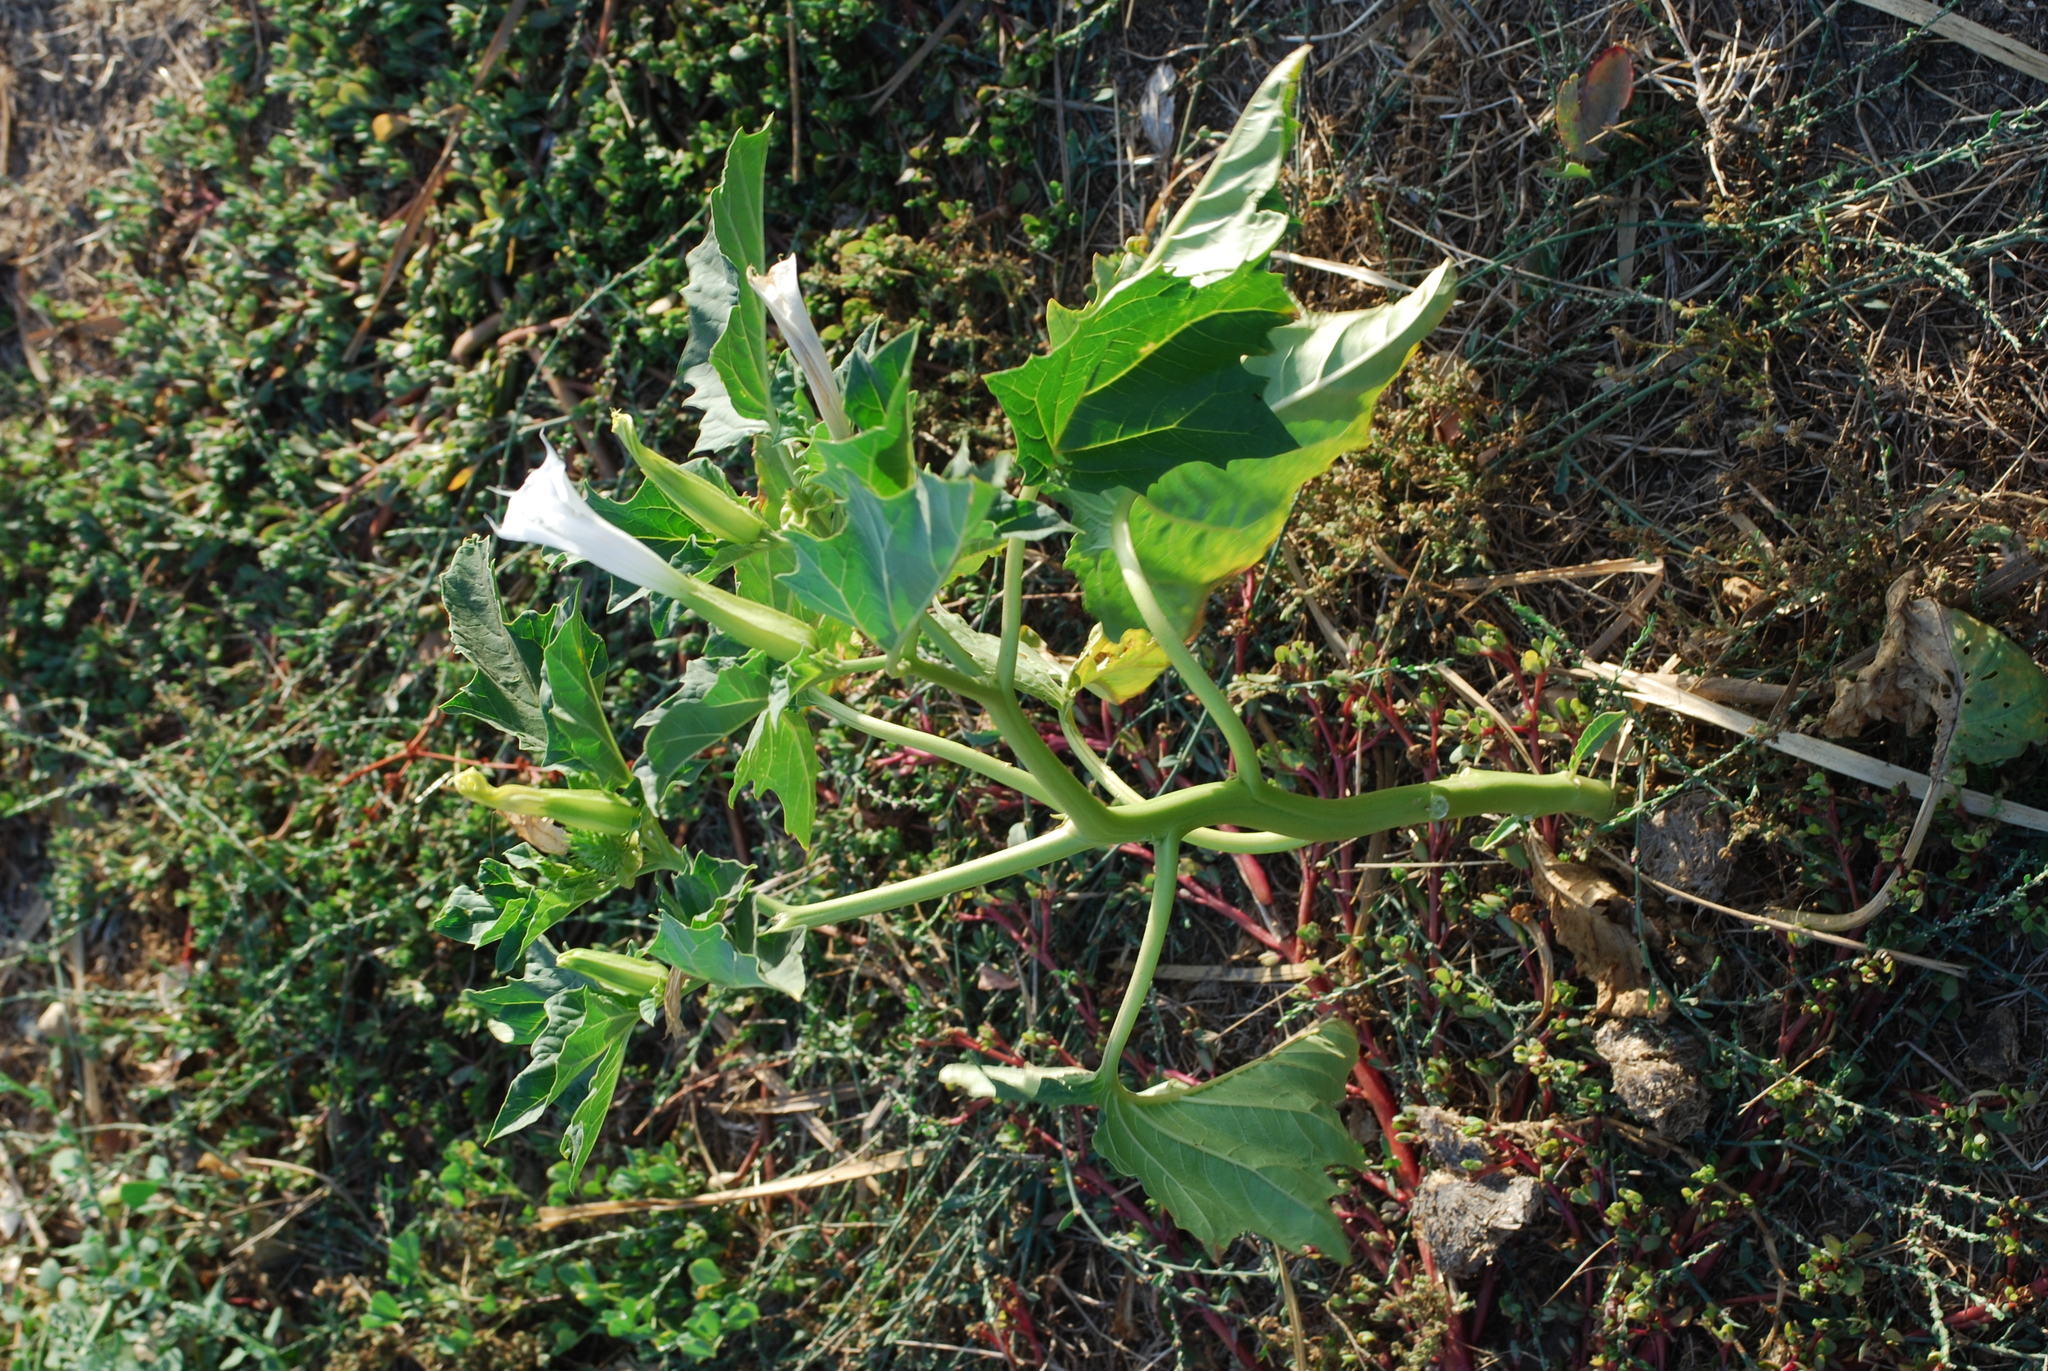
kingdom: Plantae
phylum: Tracheophyta
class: Magnoliopsida
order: Solanales
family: Solanaceae
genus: Datura
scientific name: Datura stramonium
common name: Thorn-apple
